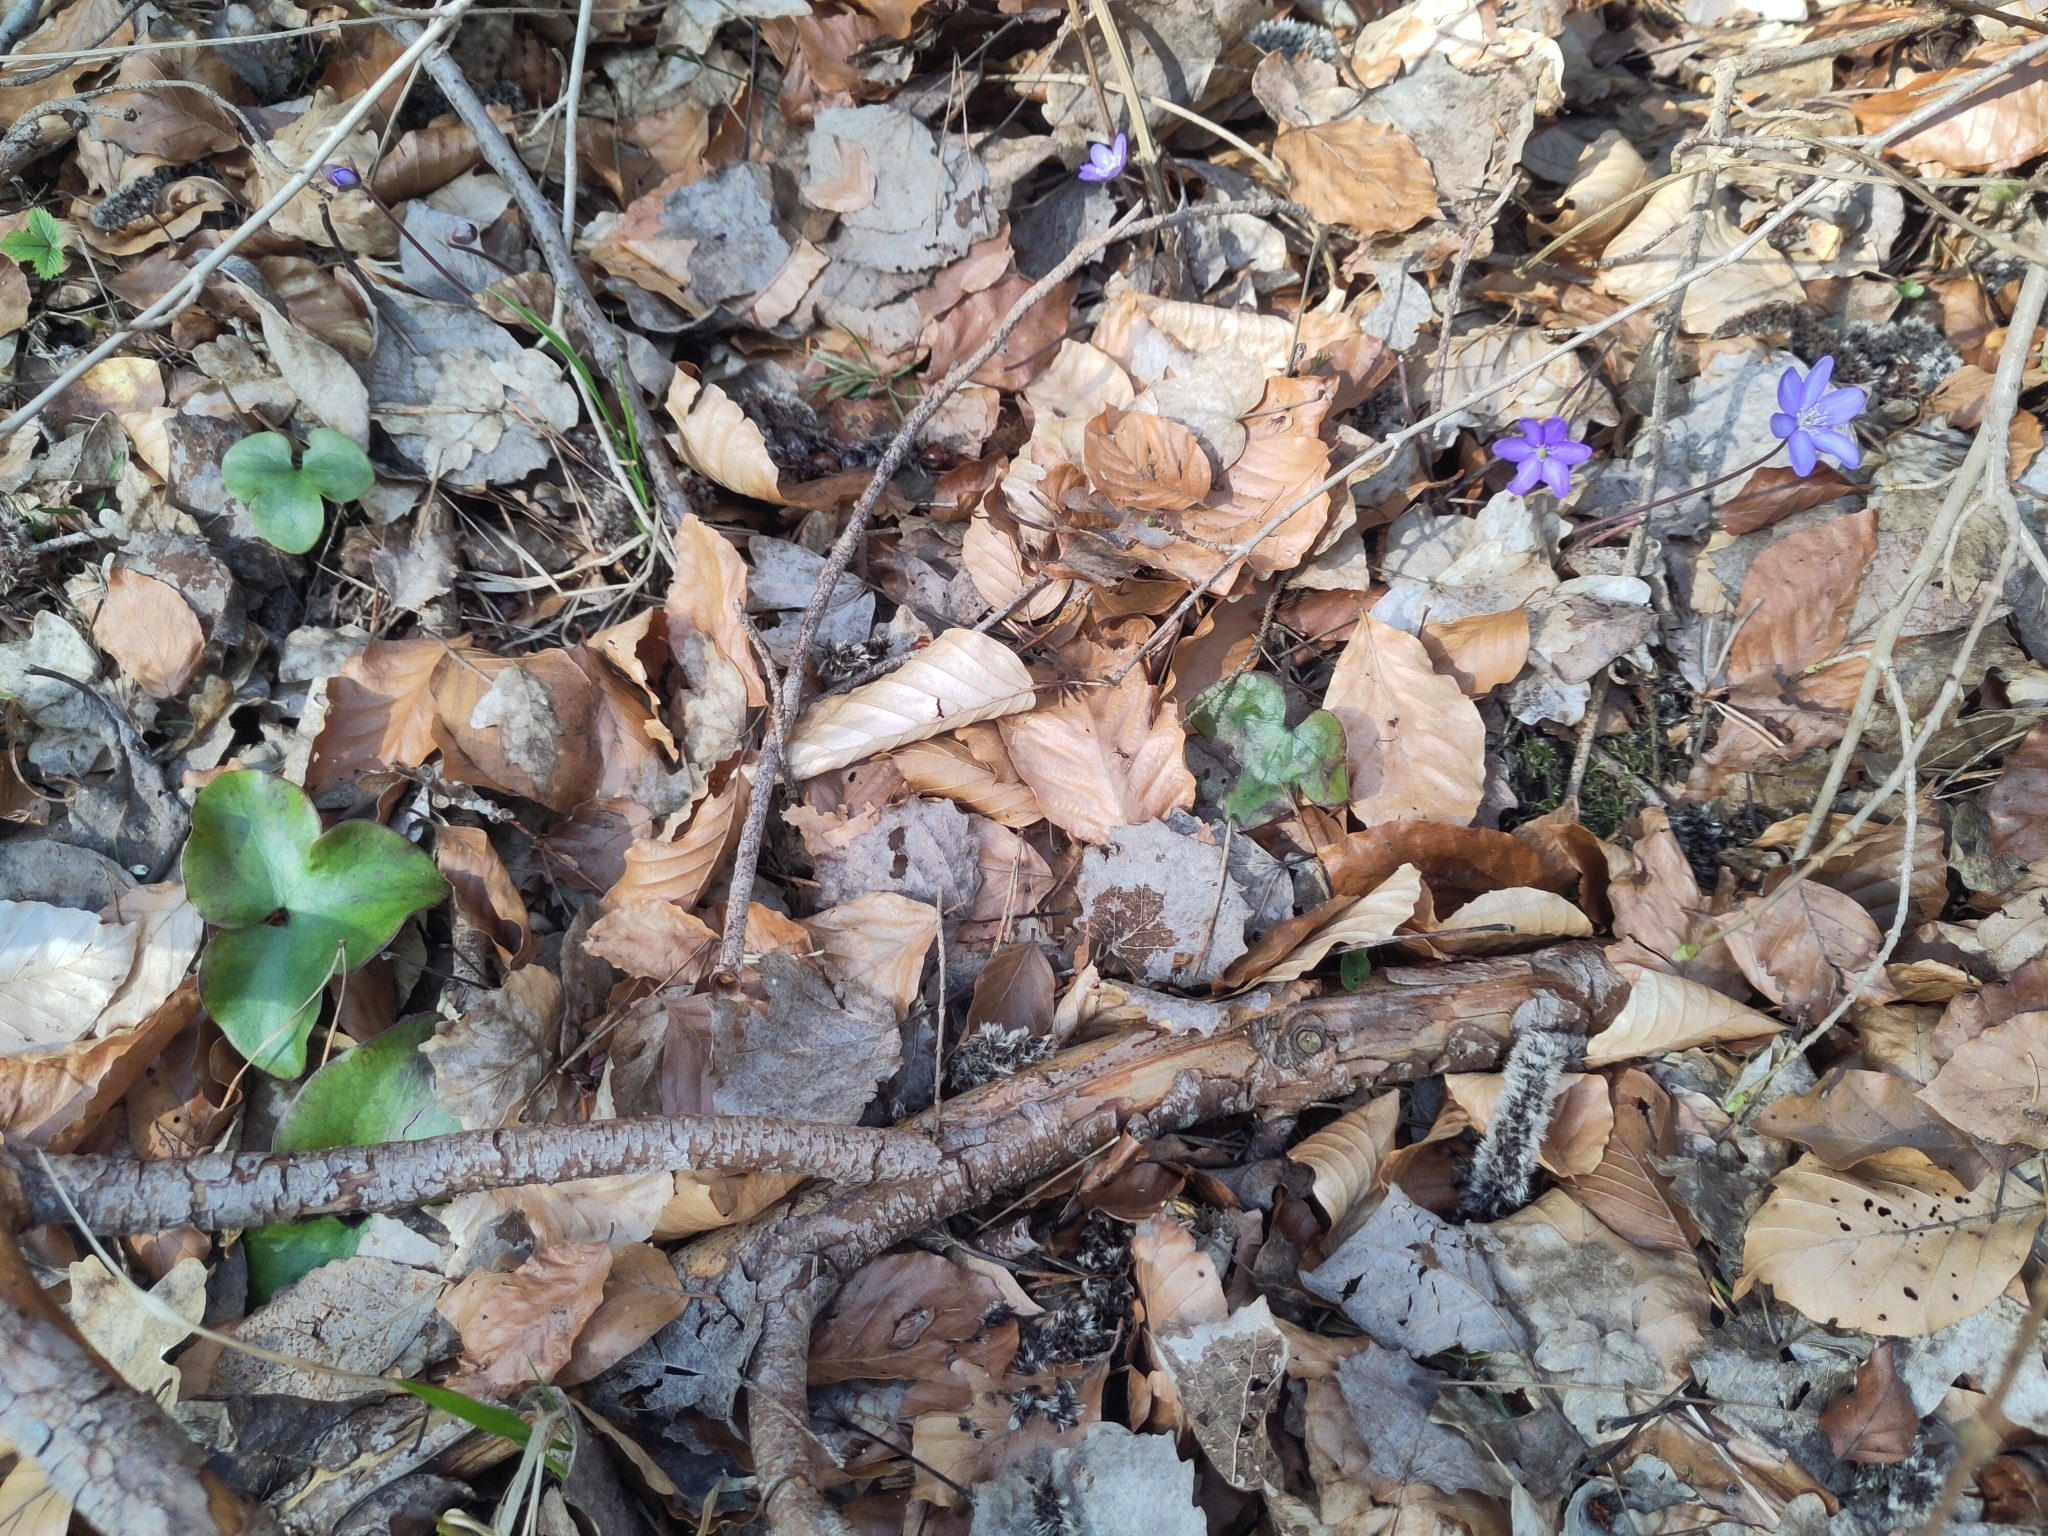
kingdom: Plantae
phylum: Tracheophyta
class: Magnoliopsida
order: Ranunculales
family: Ranunculaceae
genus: Hepatica
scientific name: Hepatica nobilis
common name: Liverleaf
